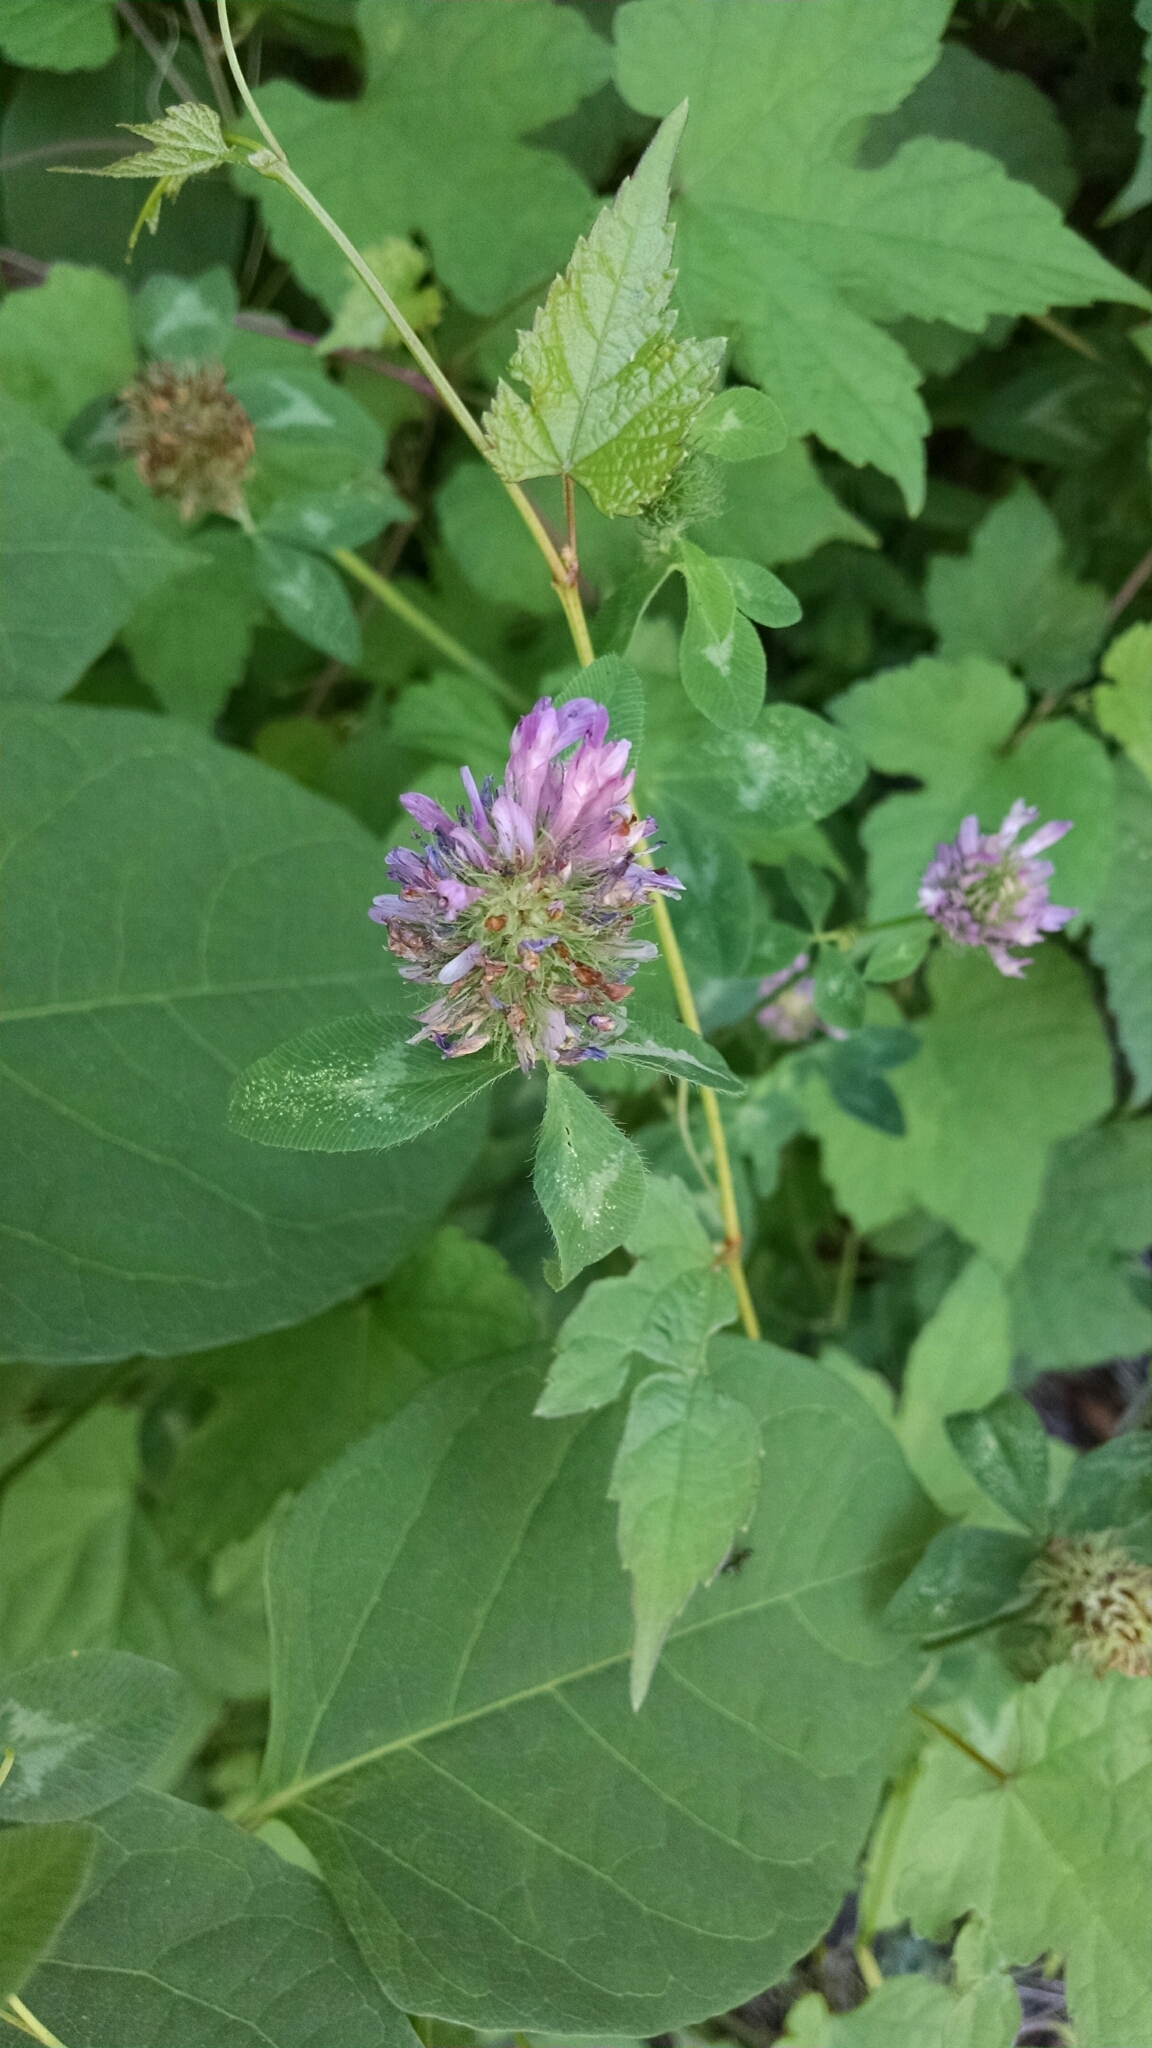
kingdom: Plantae
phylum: Tracheophyta
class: Magnoliopsida
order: Fabales
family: Fabaceae
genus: Trifolium
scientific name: Trifolium pratense
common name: Red clover
